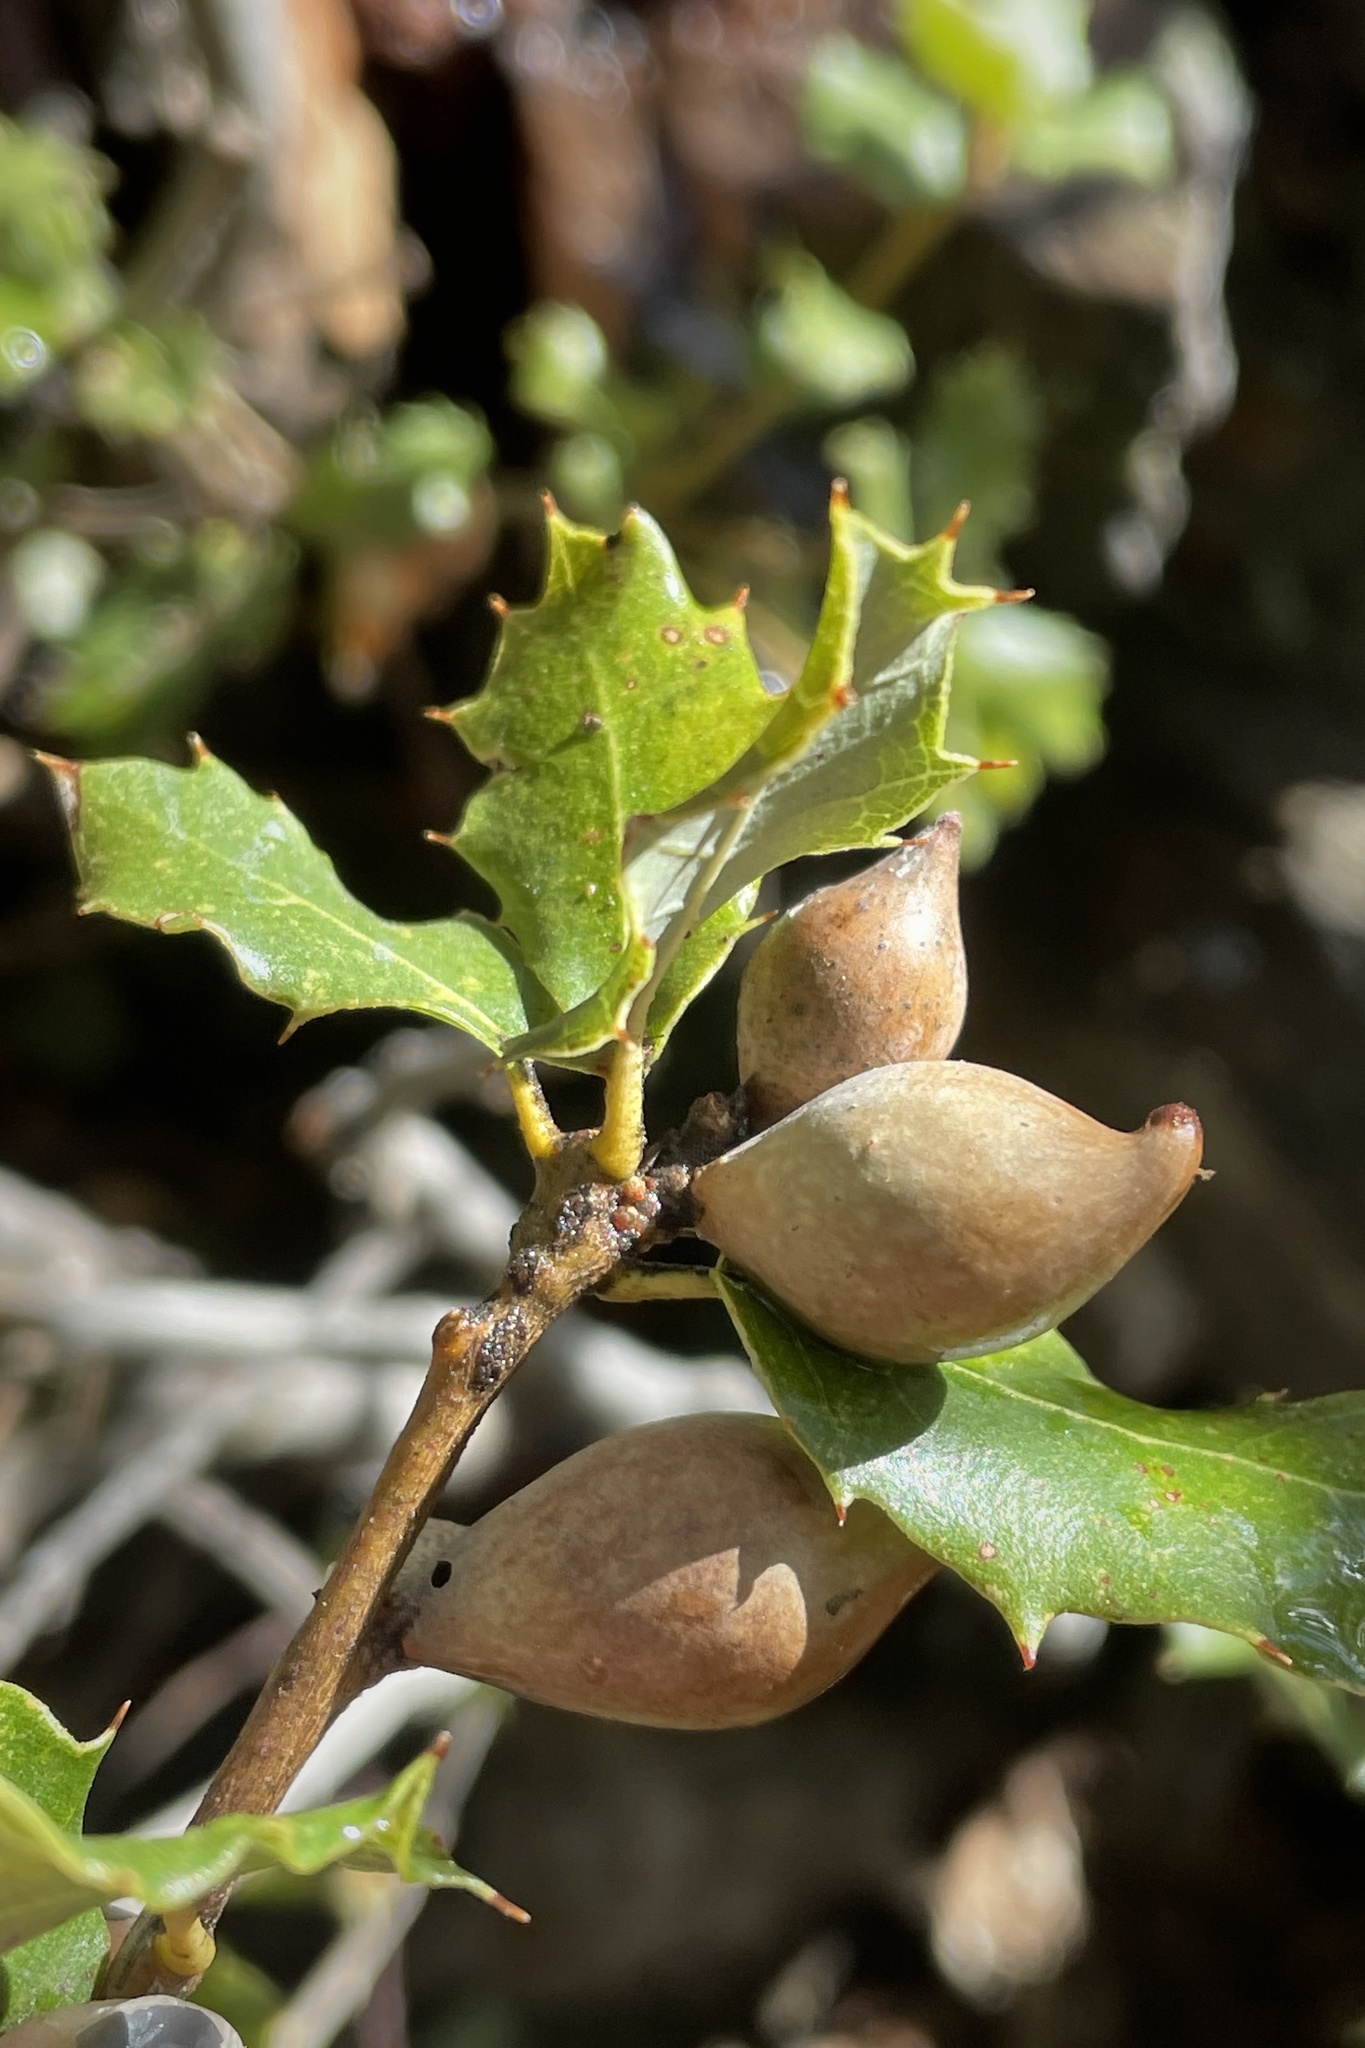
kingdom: Animalia
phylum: Arthropoda
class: Insecta
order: Hymenoptera
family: Cynipidae
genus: Heteroecus
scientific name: Heteroecus pacificus
